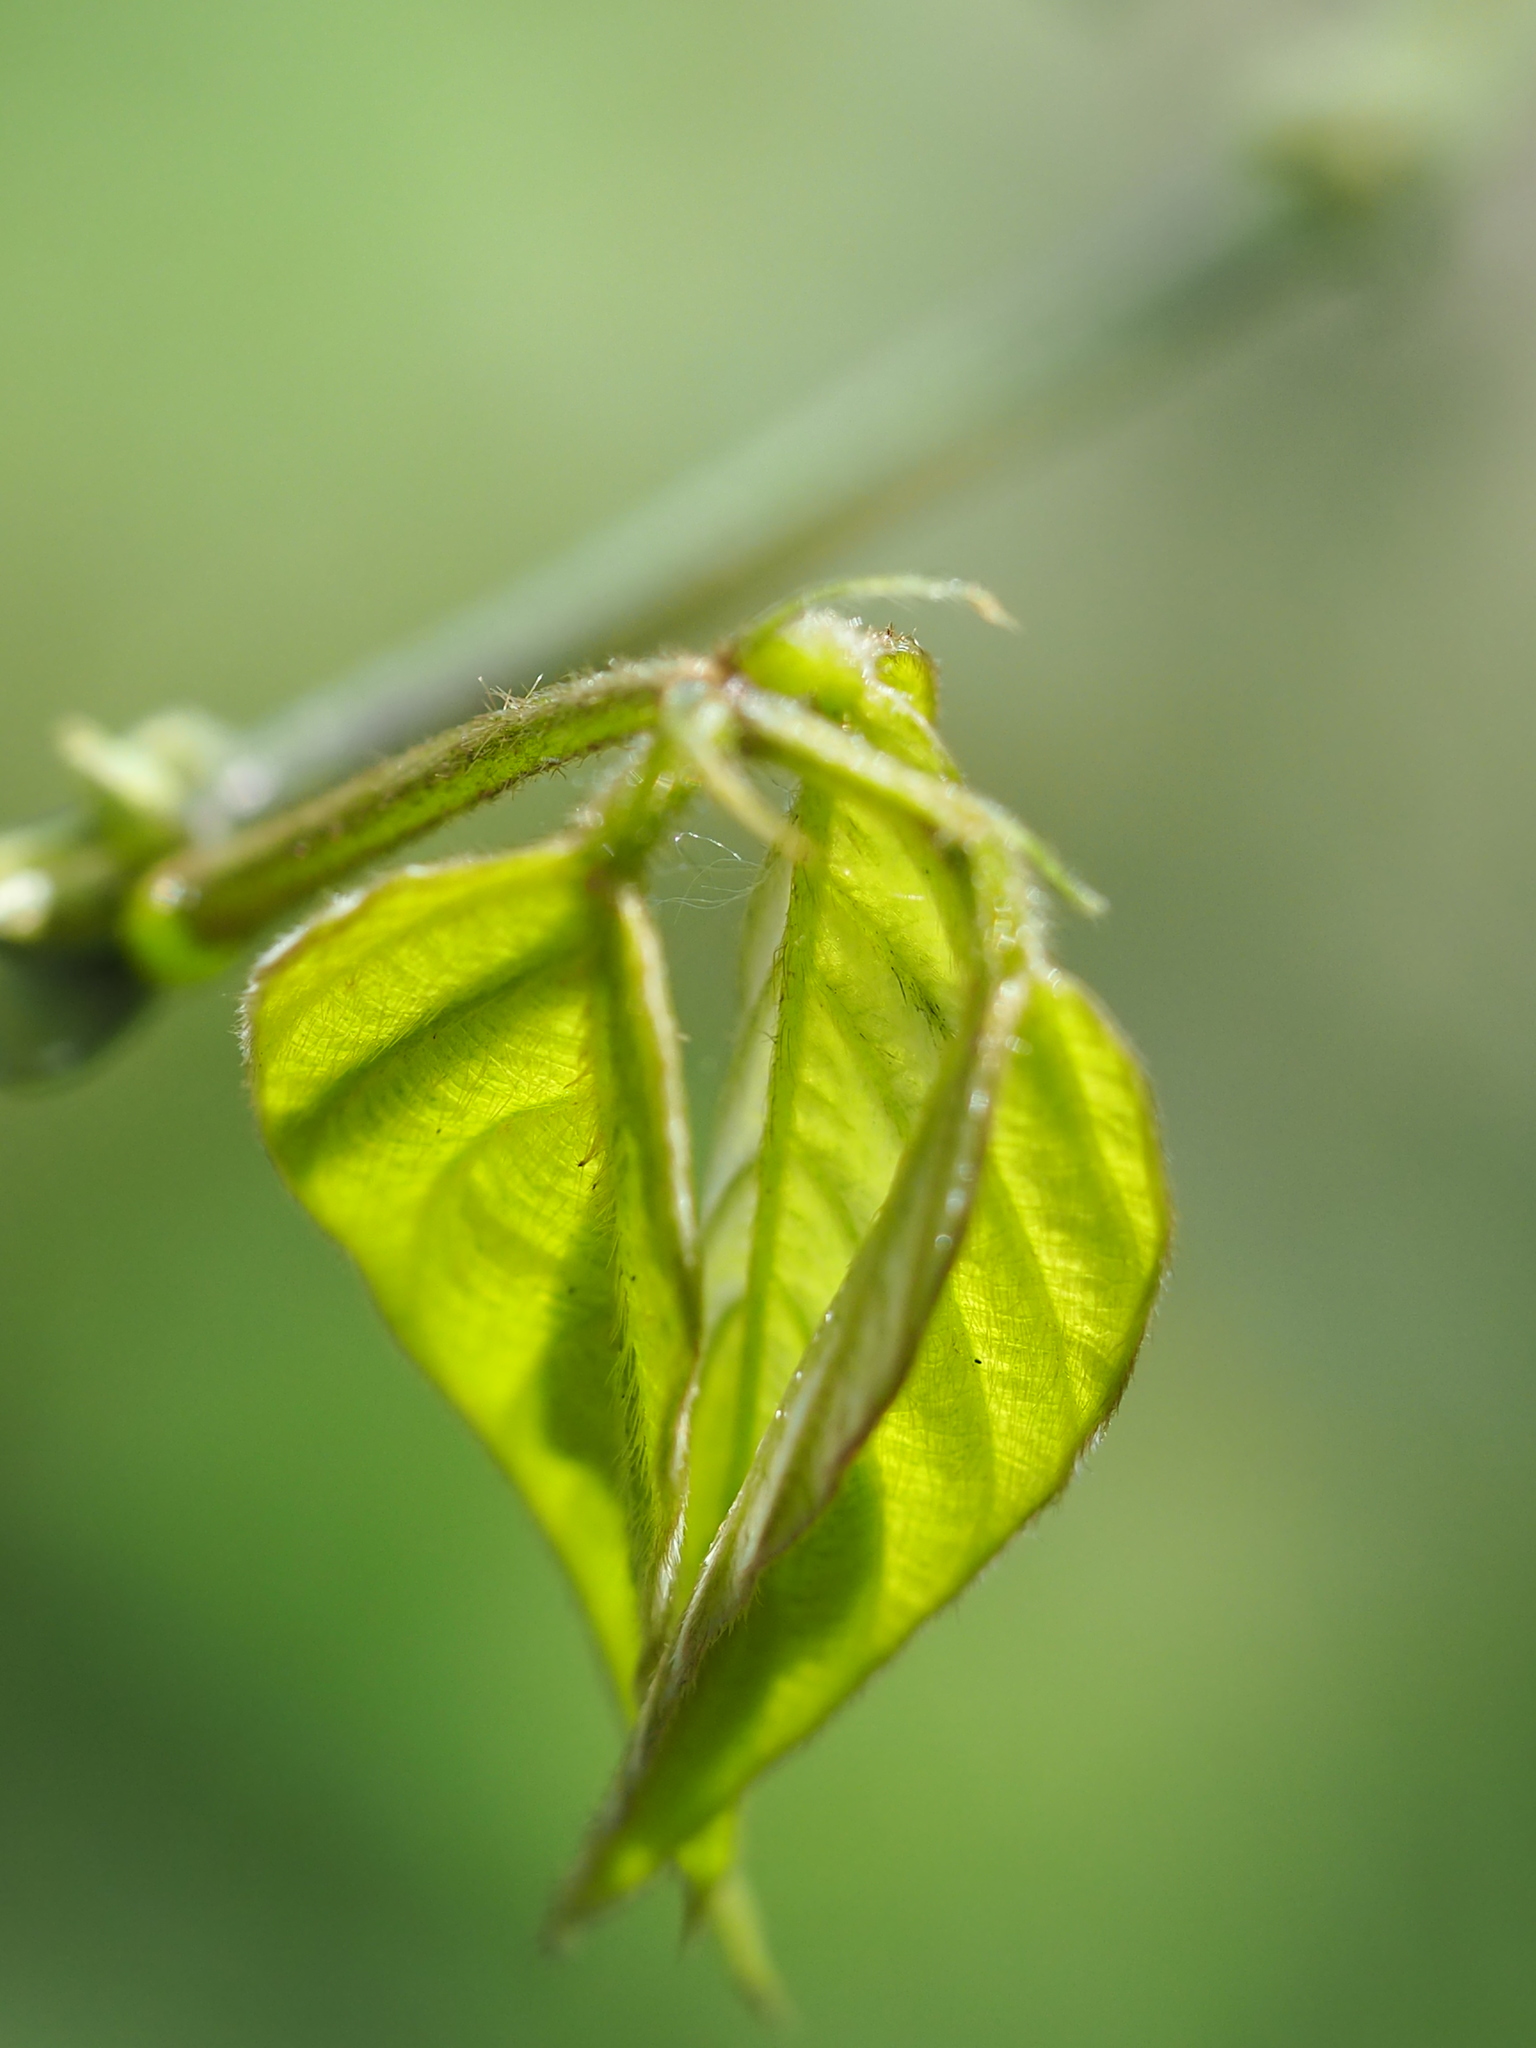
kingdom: Plantae
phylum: Tracheophyta
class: Magnoliopsida
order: Fabales
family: Fabaceae
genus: Pueraria
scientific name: Pueraria montana
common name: Kudzu
